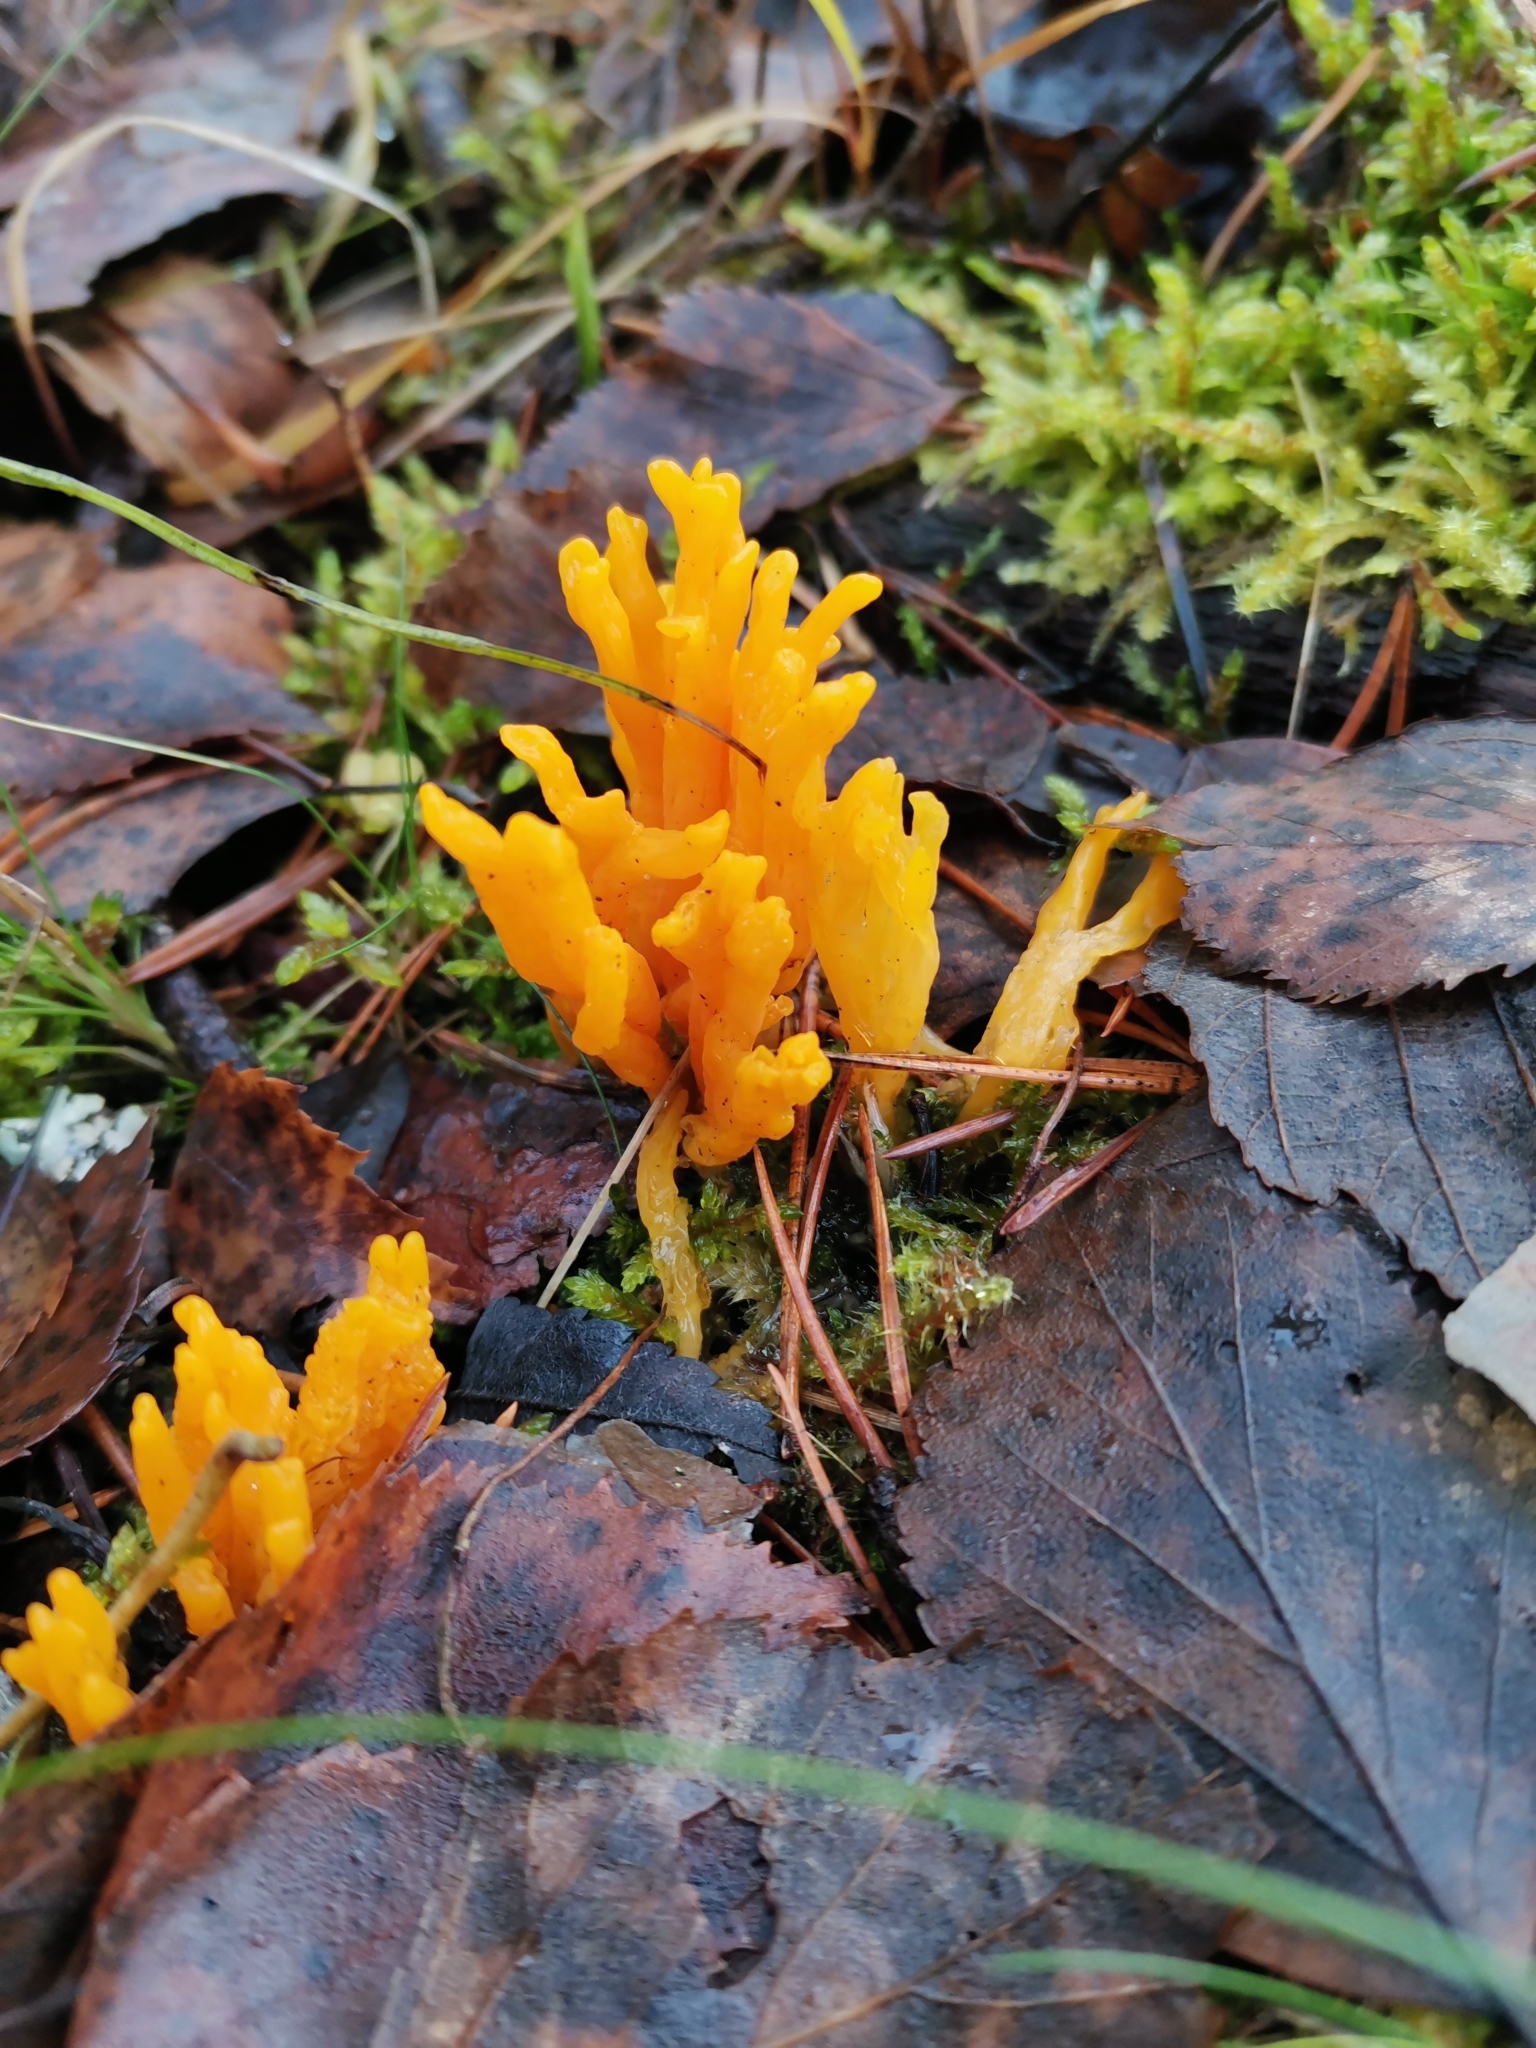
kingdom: Fungi
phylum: Basidiomycota
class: Dacrymycetes
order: Dacrymycetales
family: Dacrymycetaceae
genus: Calocera
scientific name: Calocera viscosa
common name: Yellow stagshorn
